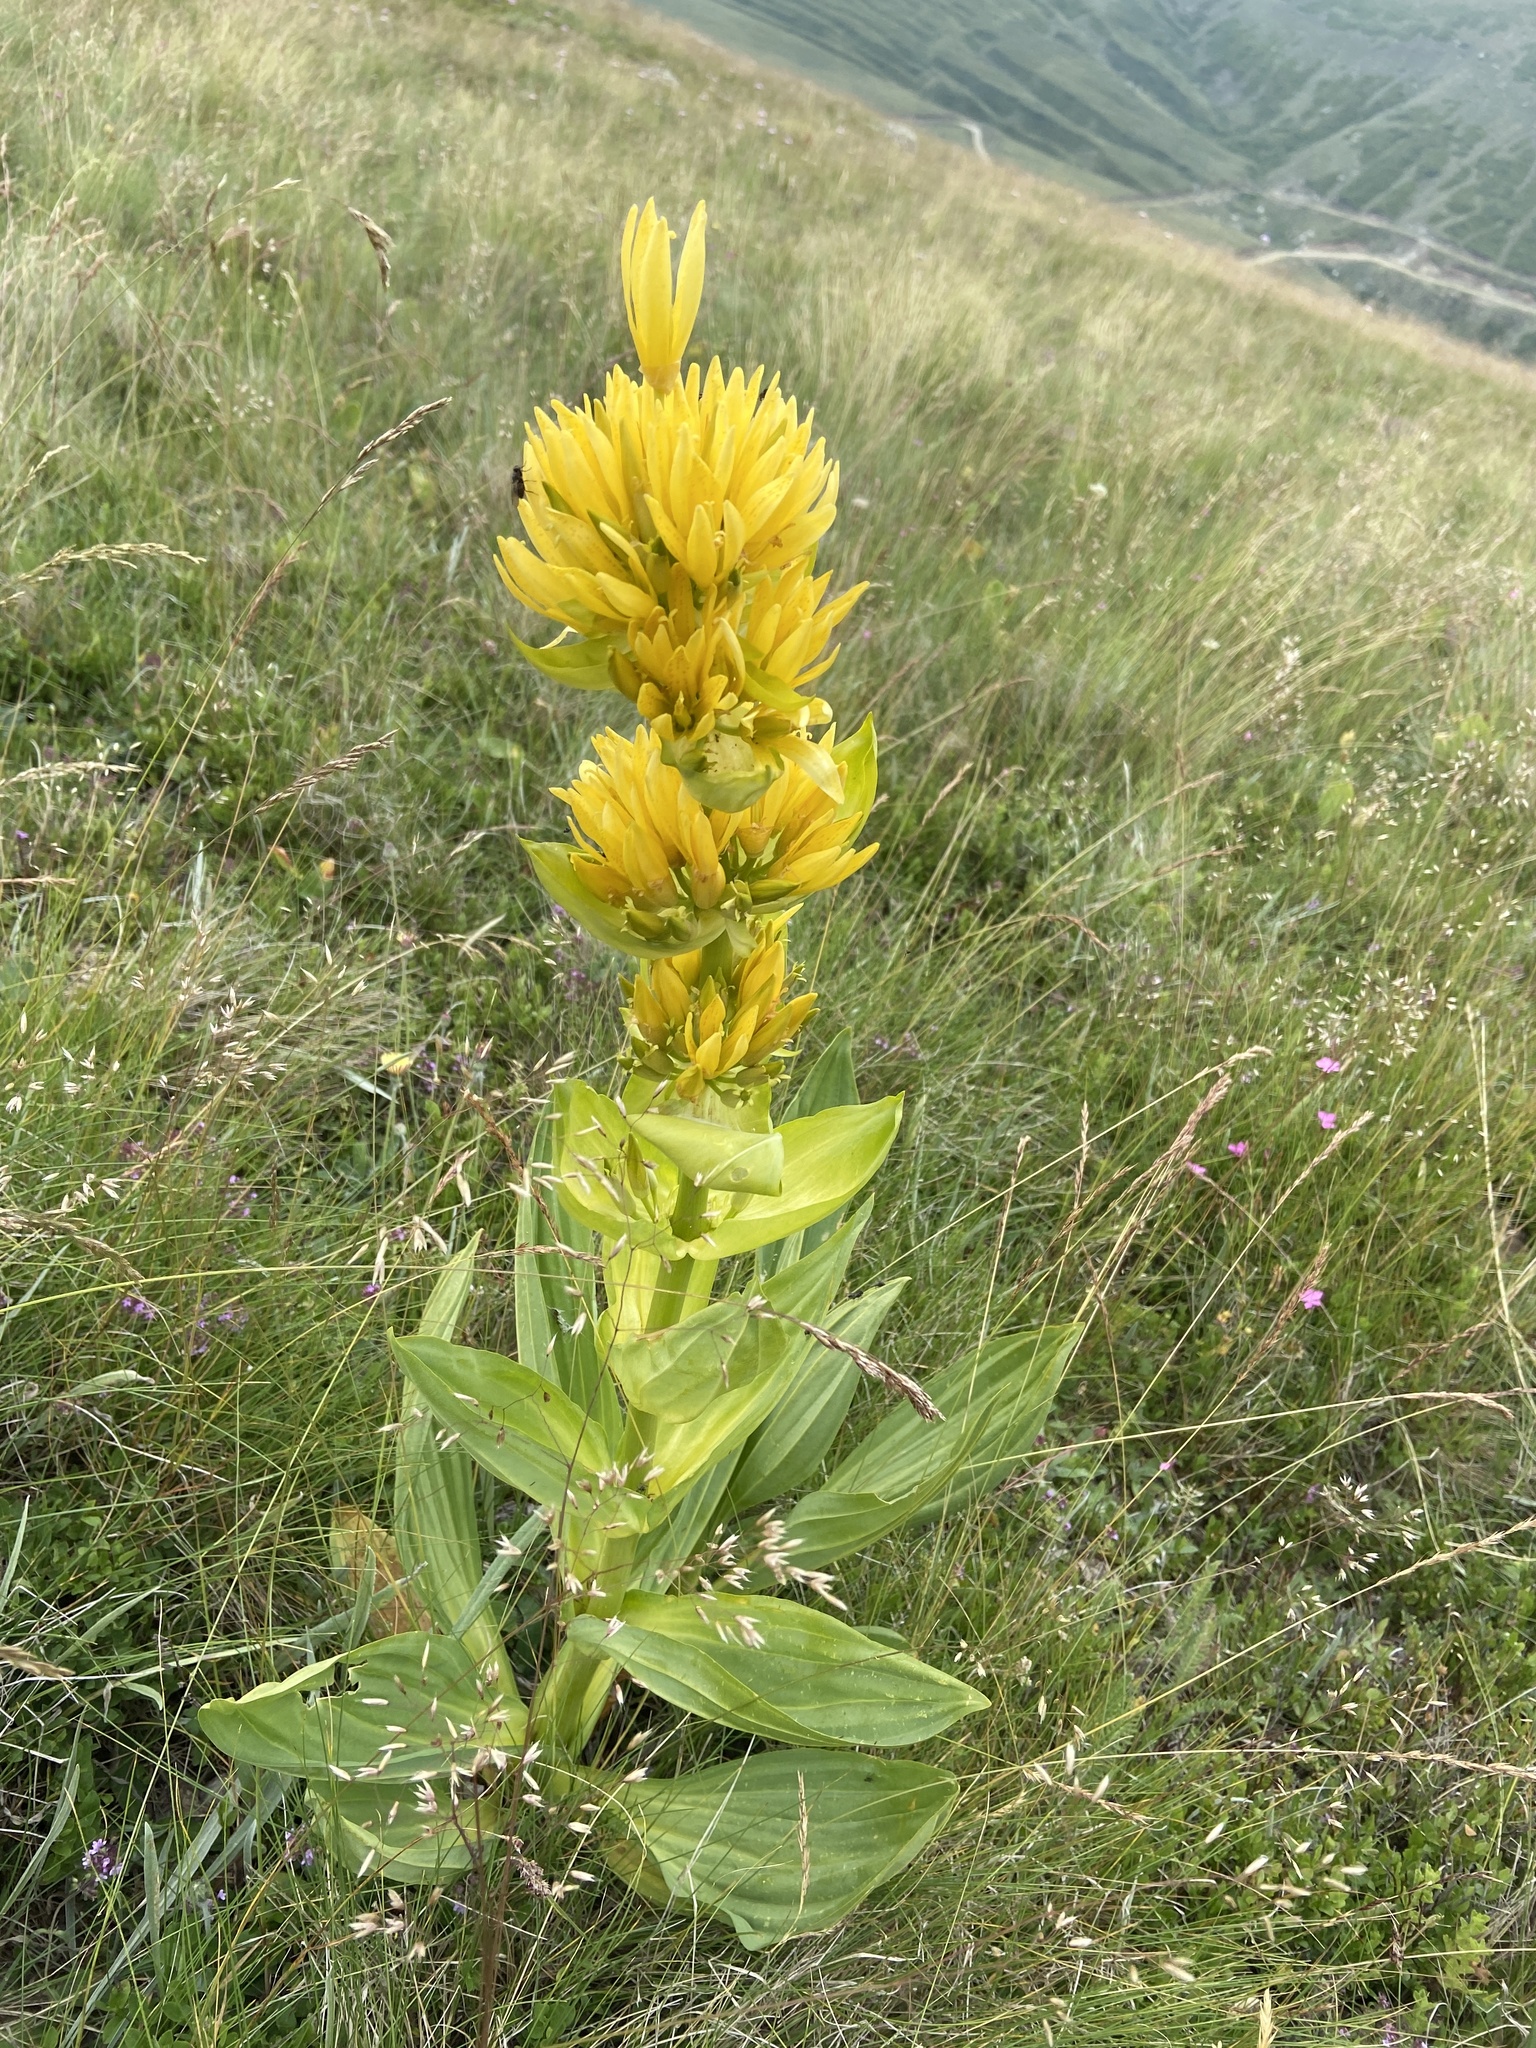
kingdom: Plantae
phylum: Tracheophyta
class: Magnoliopsida
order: Gentianales
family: Gentianaceae
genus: Gentiana
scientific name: Gentiana lutea
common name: Great yellow gentian
